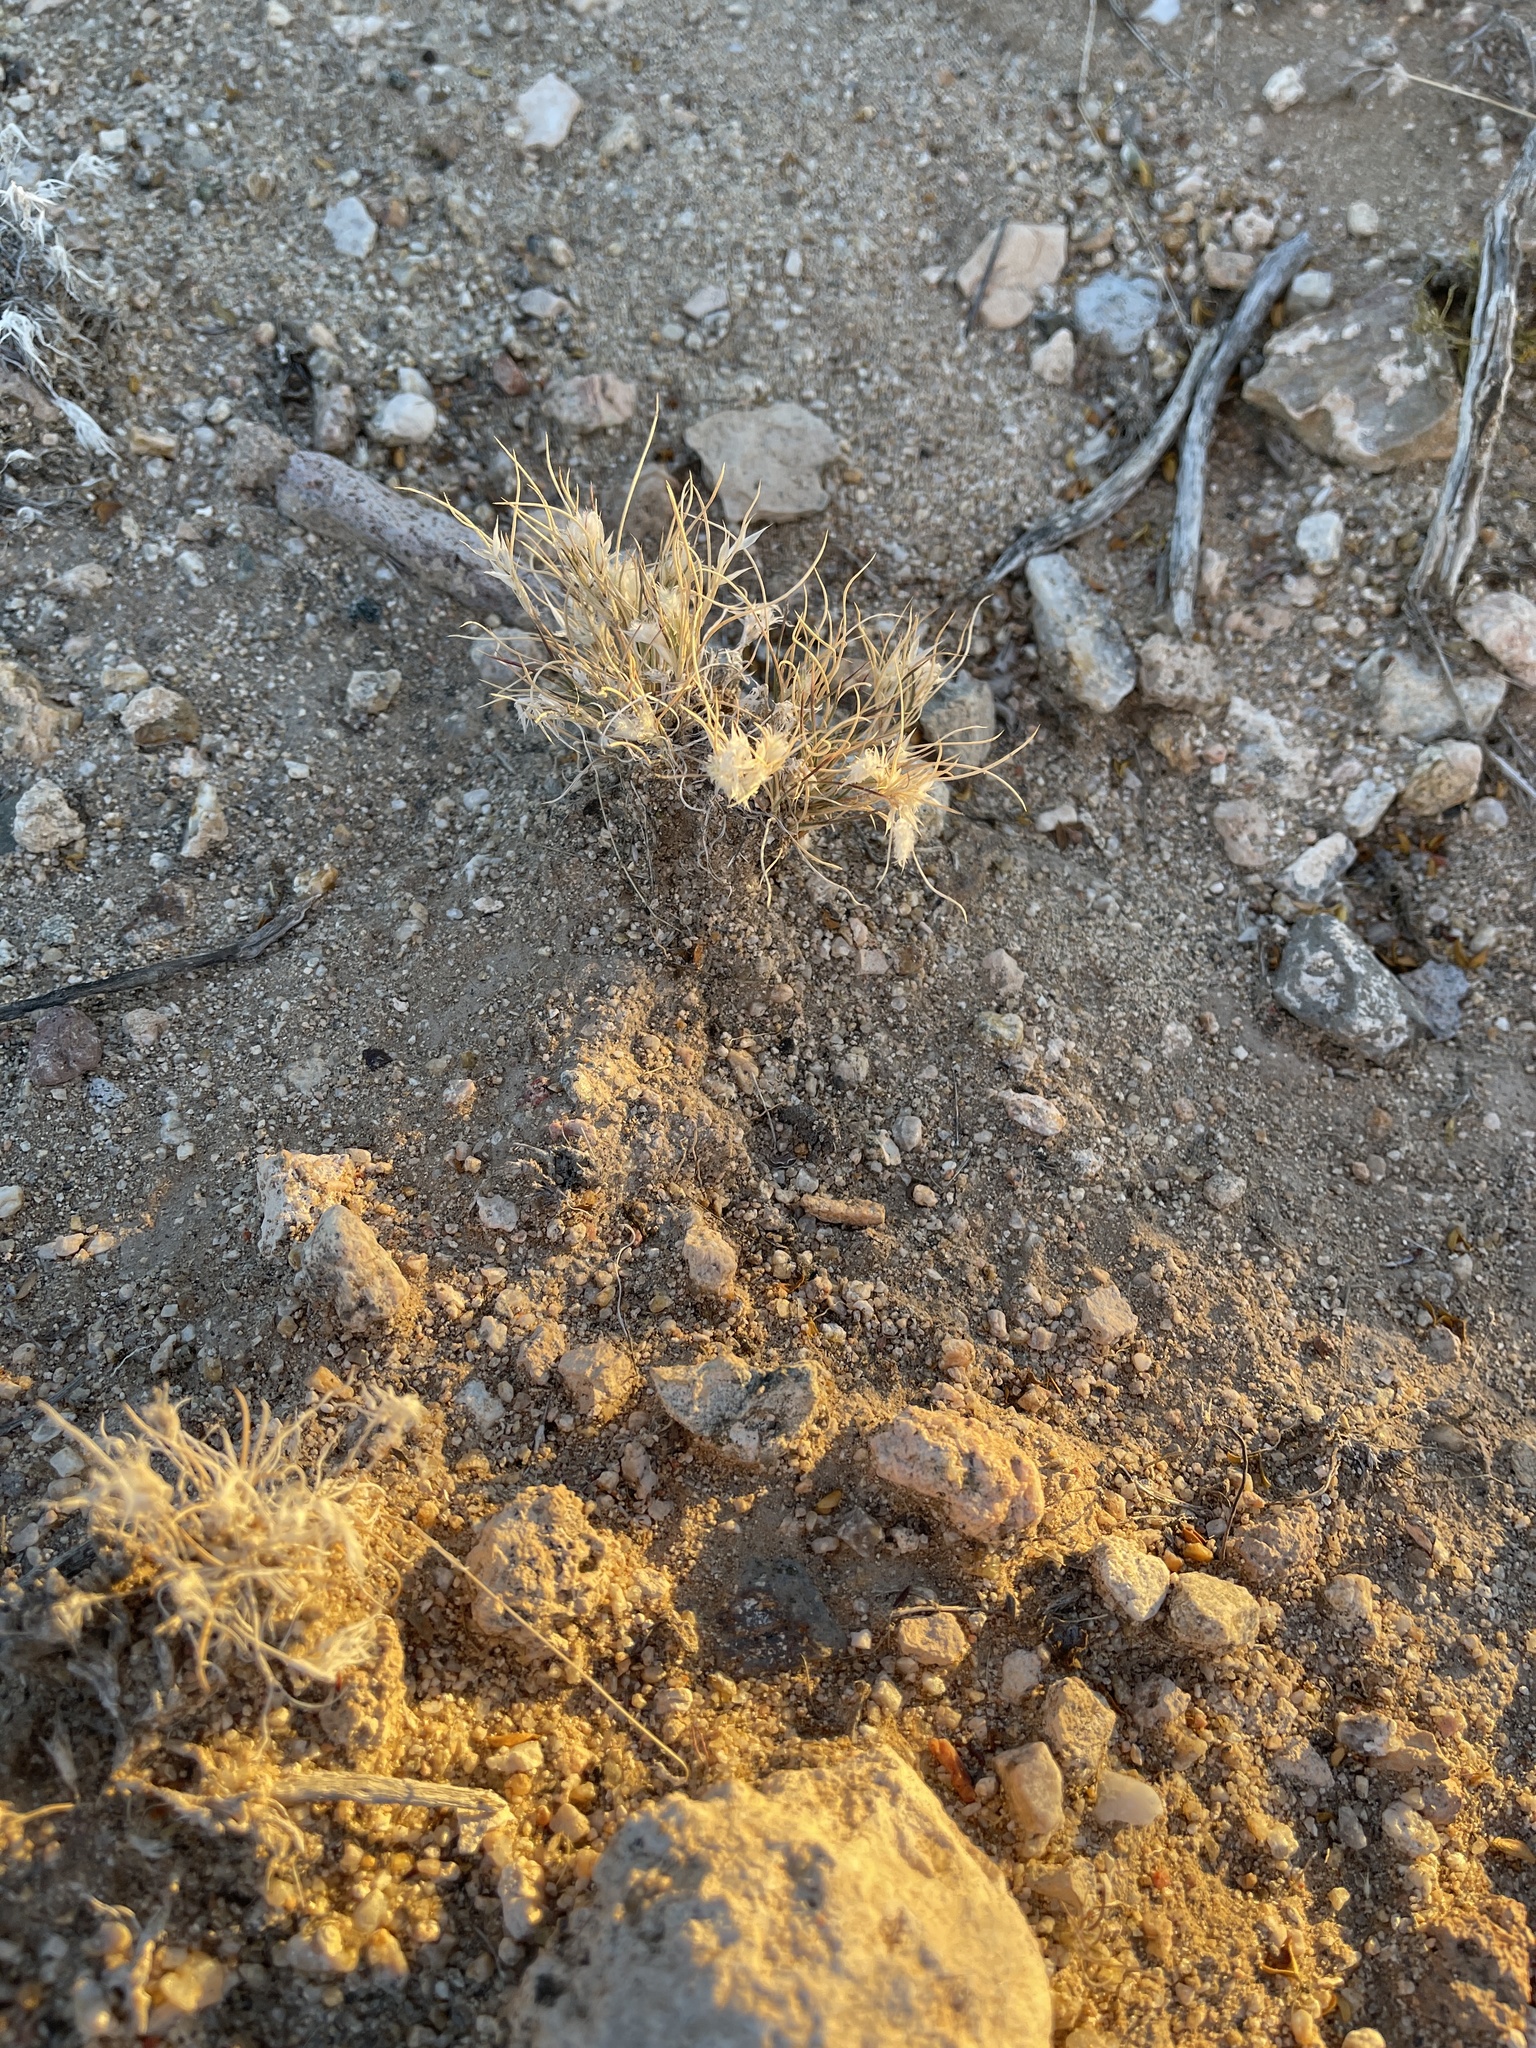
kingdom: Plantae
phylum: Tracheophyta
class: Liliopsida
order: Poales
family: Poaceae
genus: Dasyochloa
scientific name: Dasyochloa pulchella
